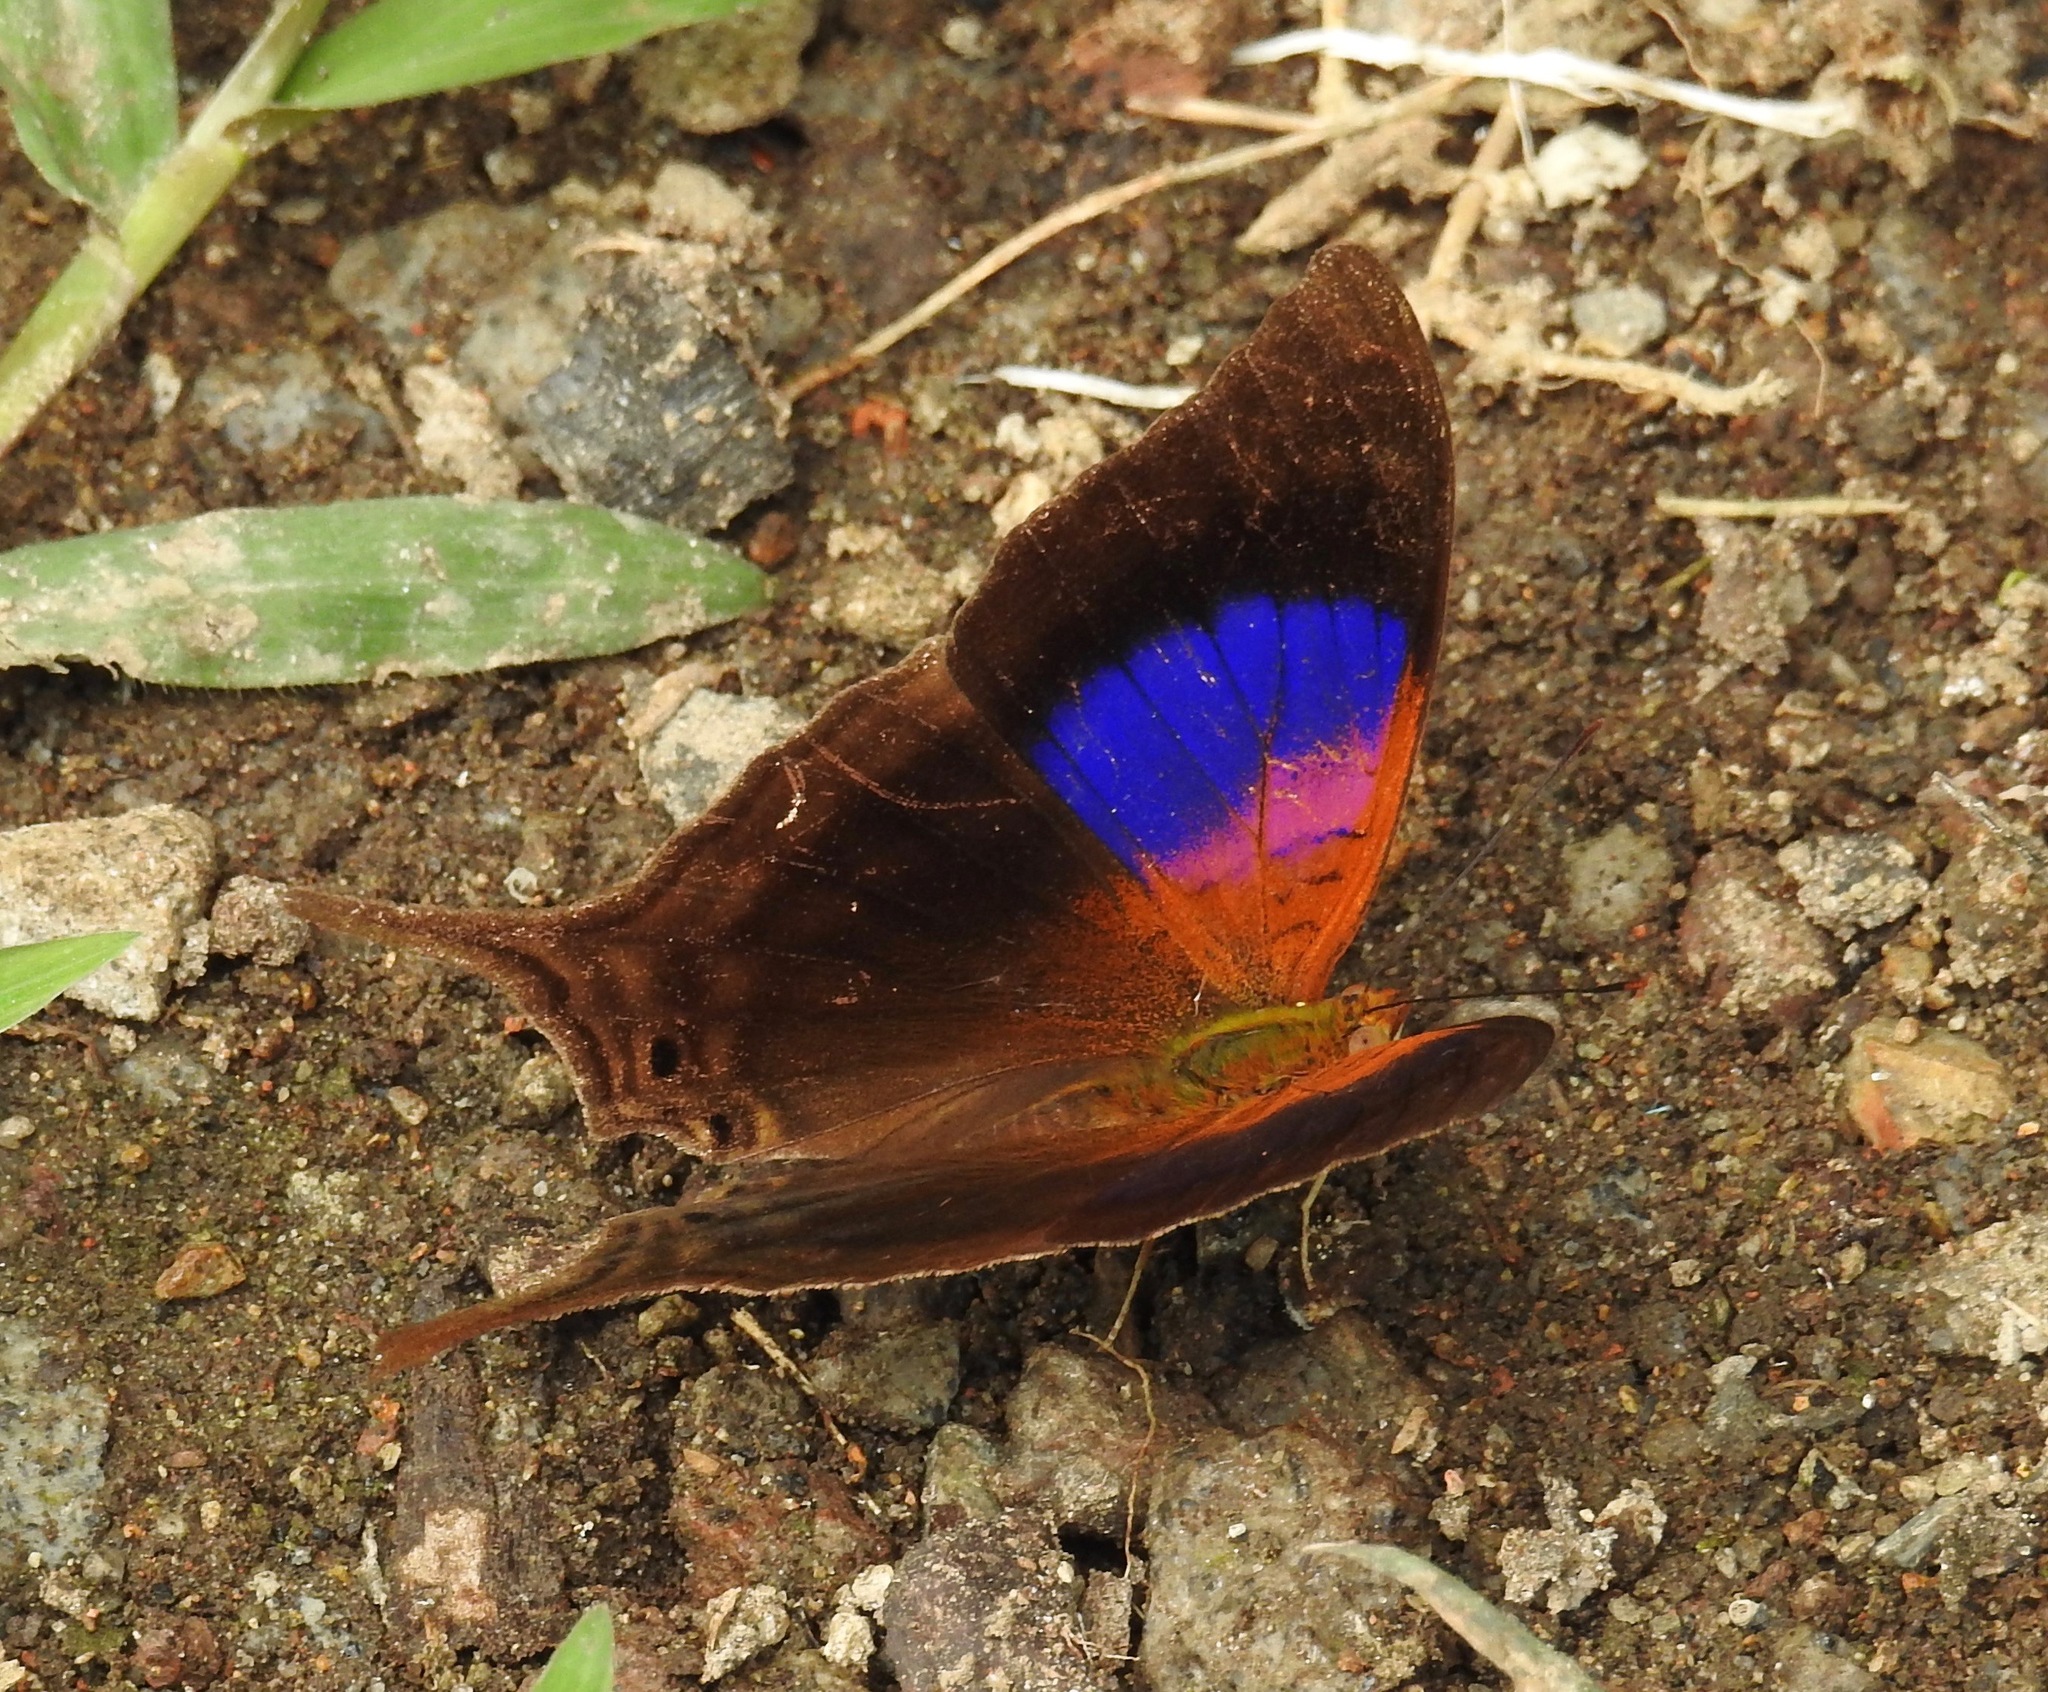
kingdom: Animalia
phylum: Arthropoda
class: Insecta
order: Lepidoptera
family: Nymphalidae
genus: Marpesia
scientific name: Marpesia furcula
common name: Sunset daggerwing
